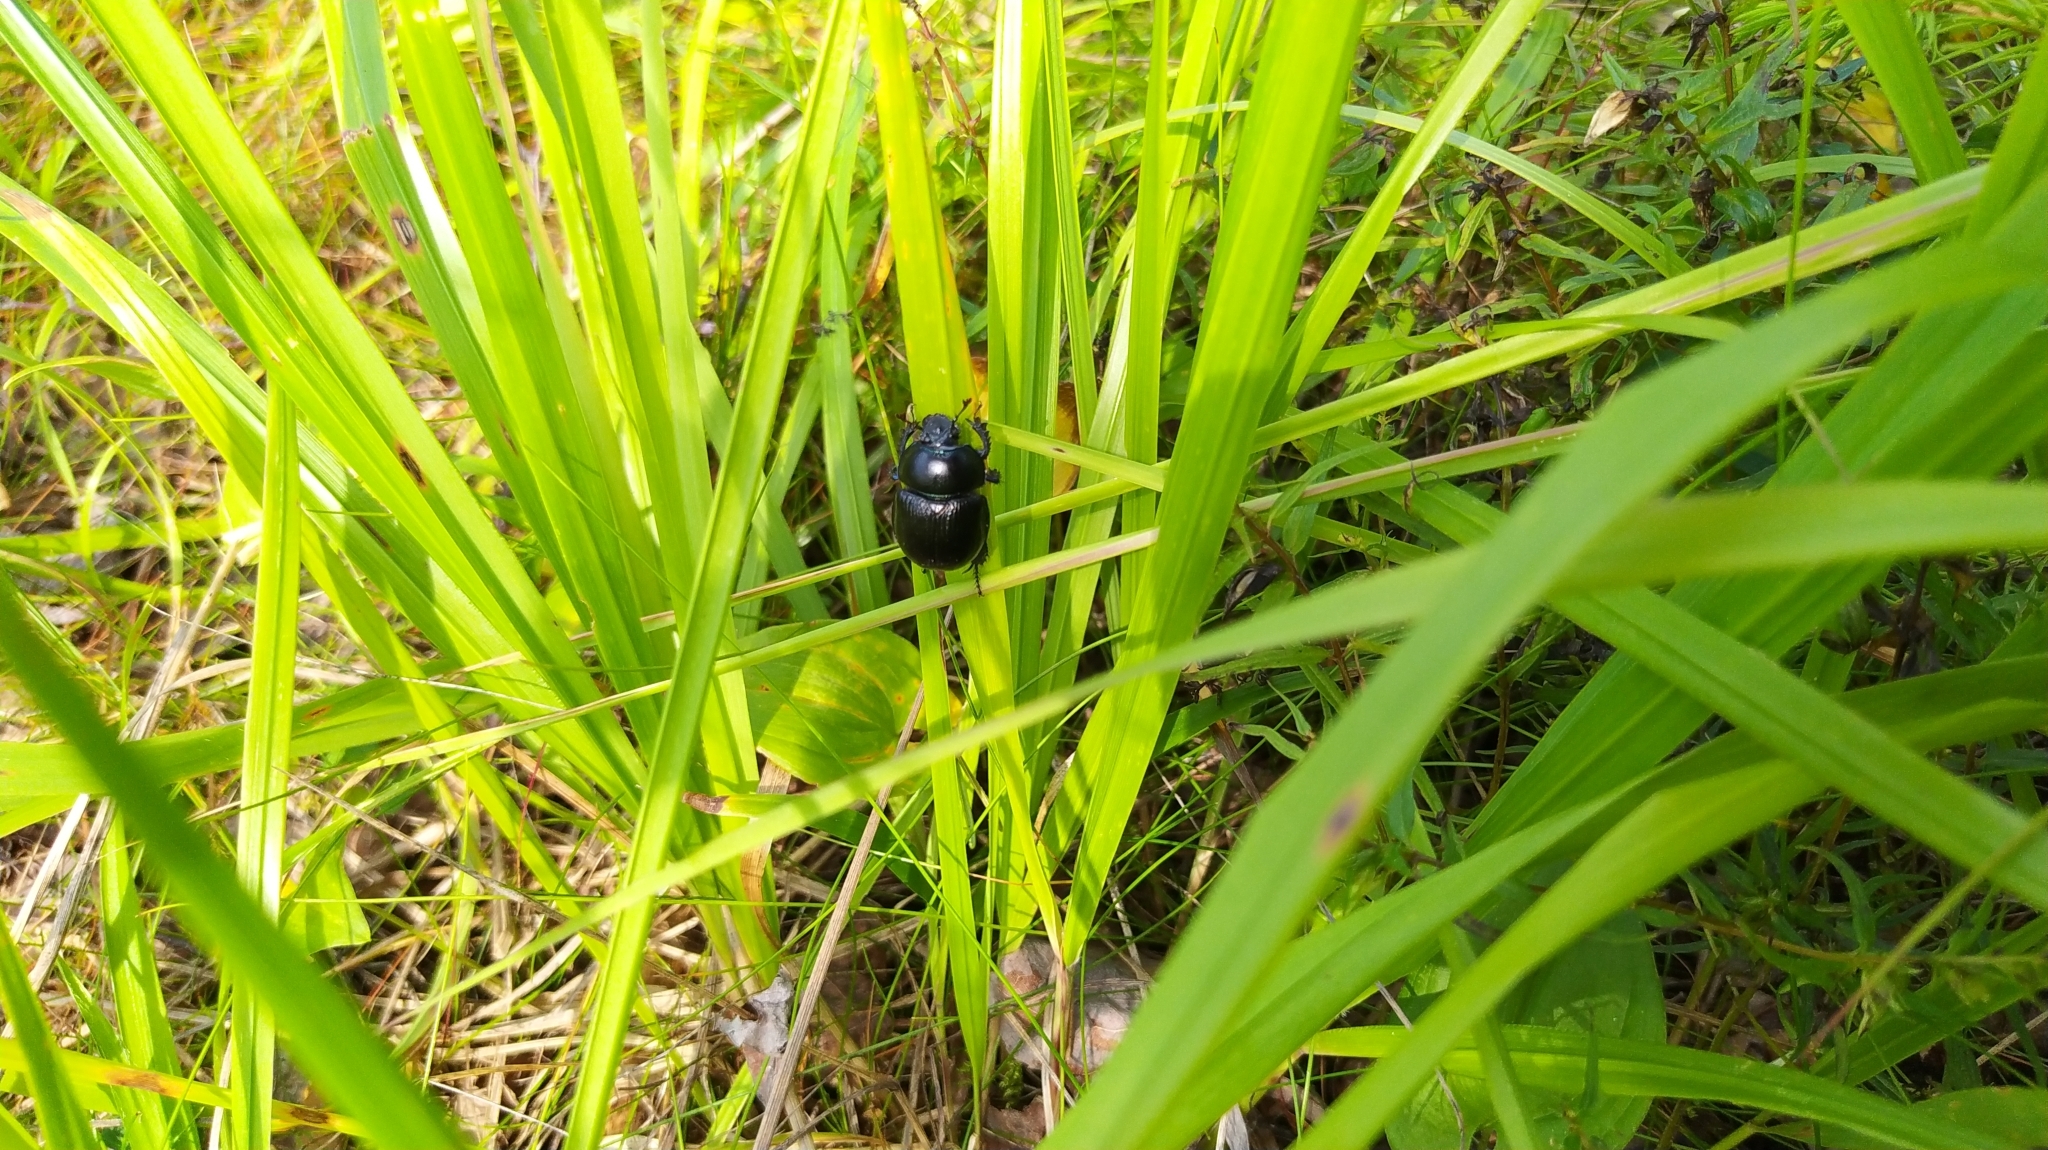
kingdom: Animalia
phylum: Arthropoda
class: Insecta
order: Coleoptera
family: Geotrupidae
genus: Anoplotrupes
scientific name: Anoplotrupes stercorosus
